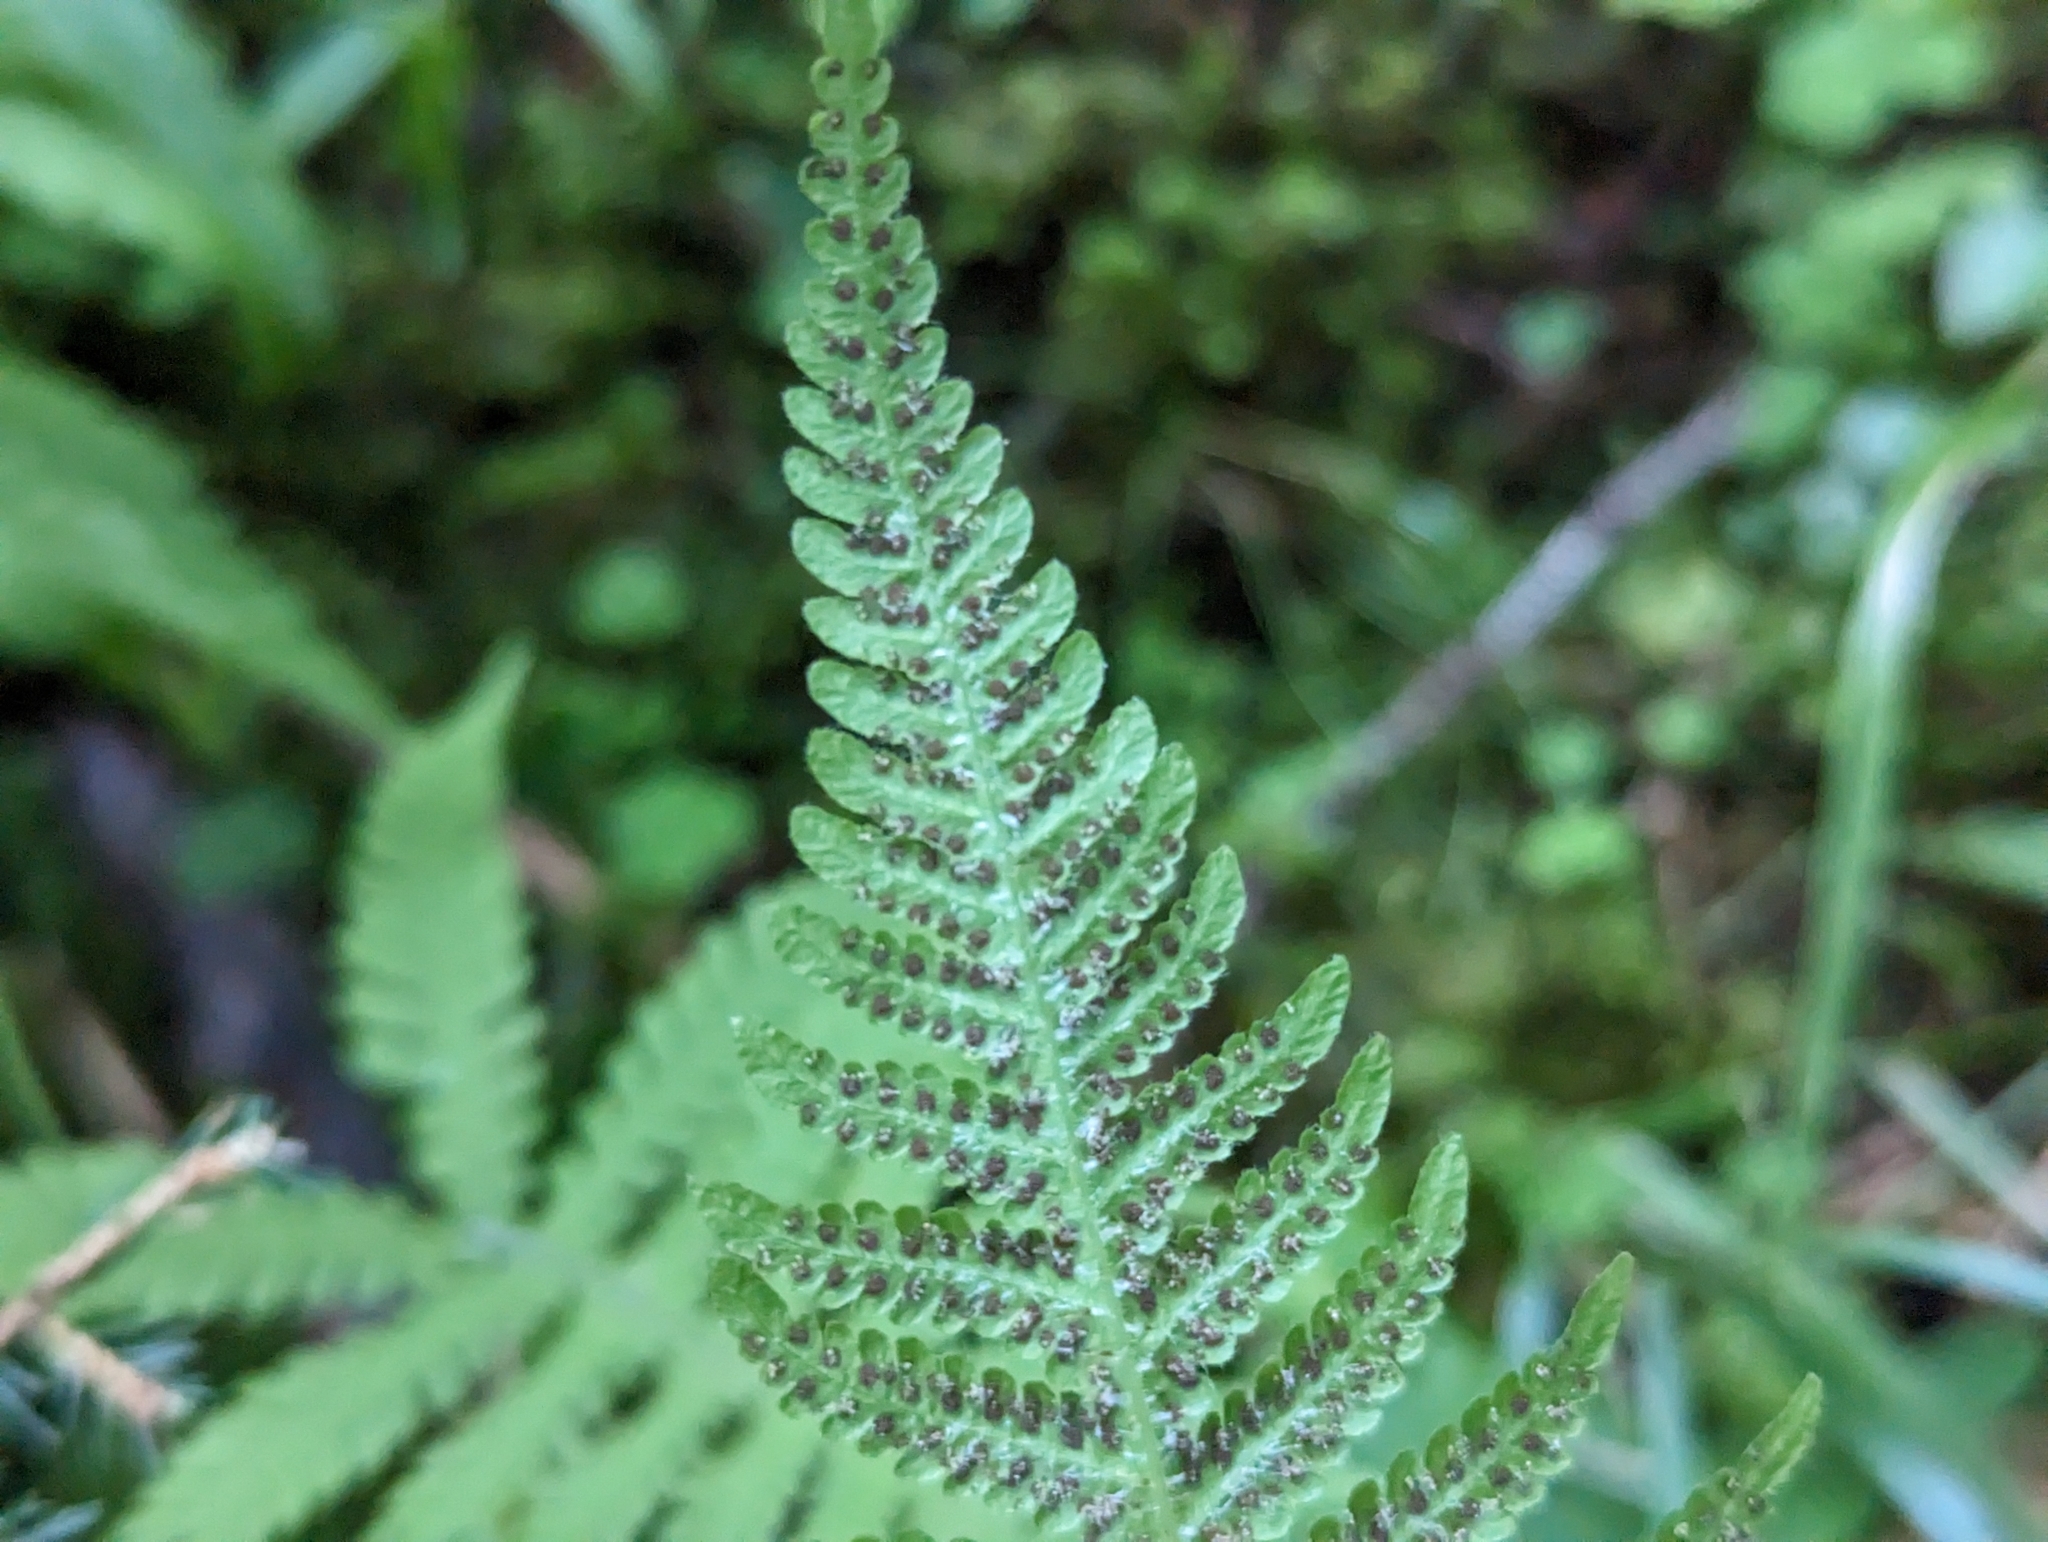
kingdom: Plantae
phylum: Tracheophyta
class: Polypodiopsida
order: Polypodiales
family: Thelypteridaceae
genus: Phegopteris
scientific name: Phegopteris connectilis
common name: Beech fern
